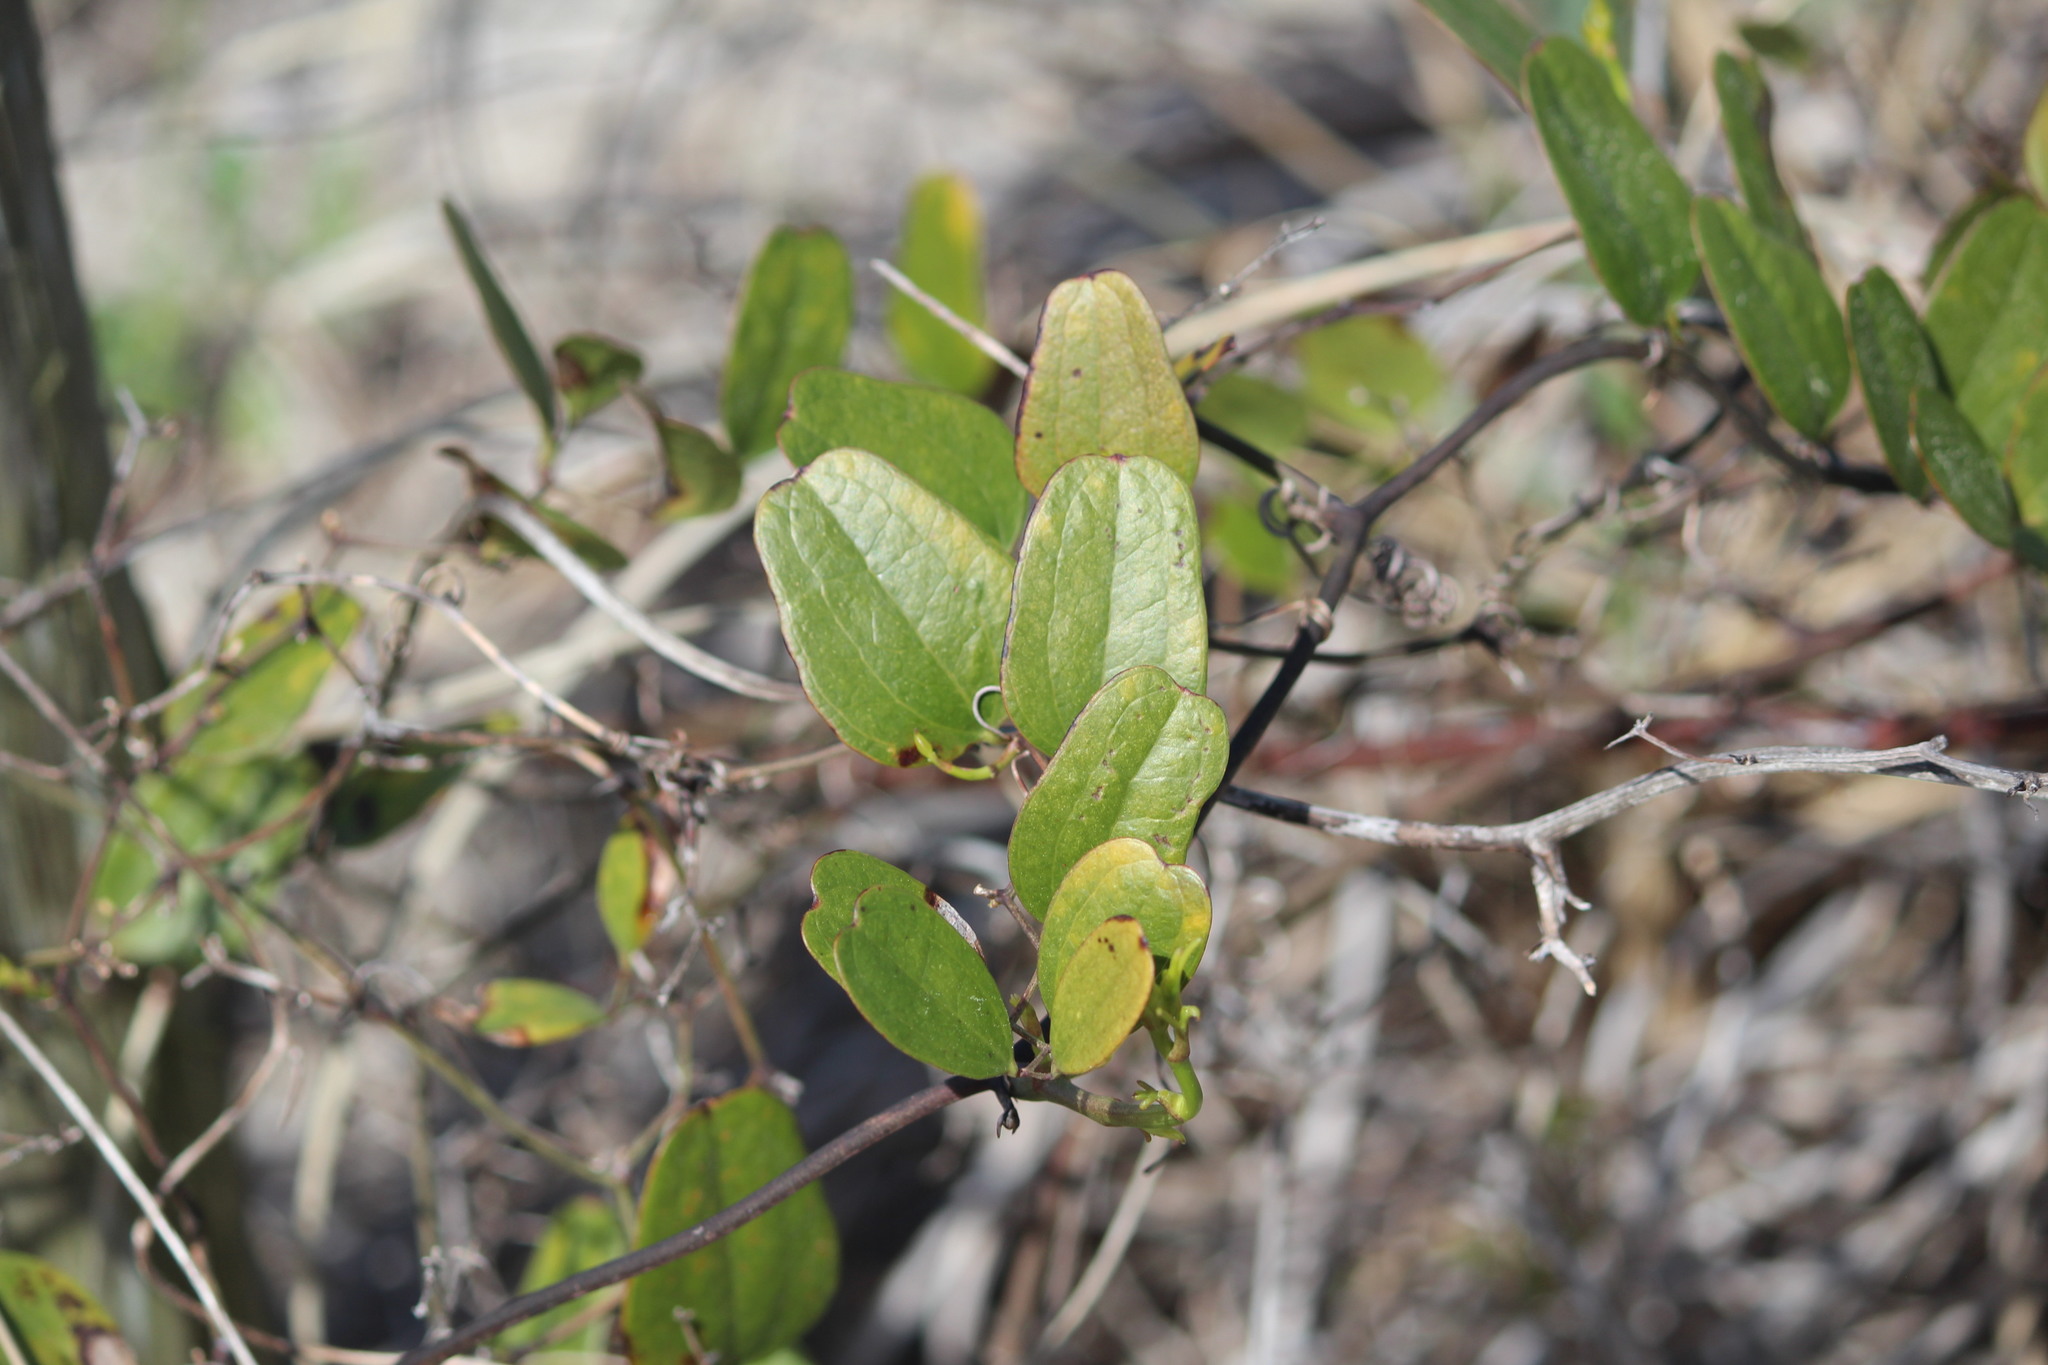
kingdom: Plantae
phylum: Tracheophyta
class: Liliopsida
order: Liliales
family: Smilacaceae
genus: Smilax
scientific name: Smilax auriculata
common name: Wild bamboo
